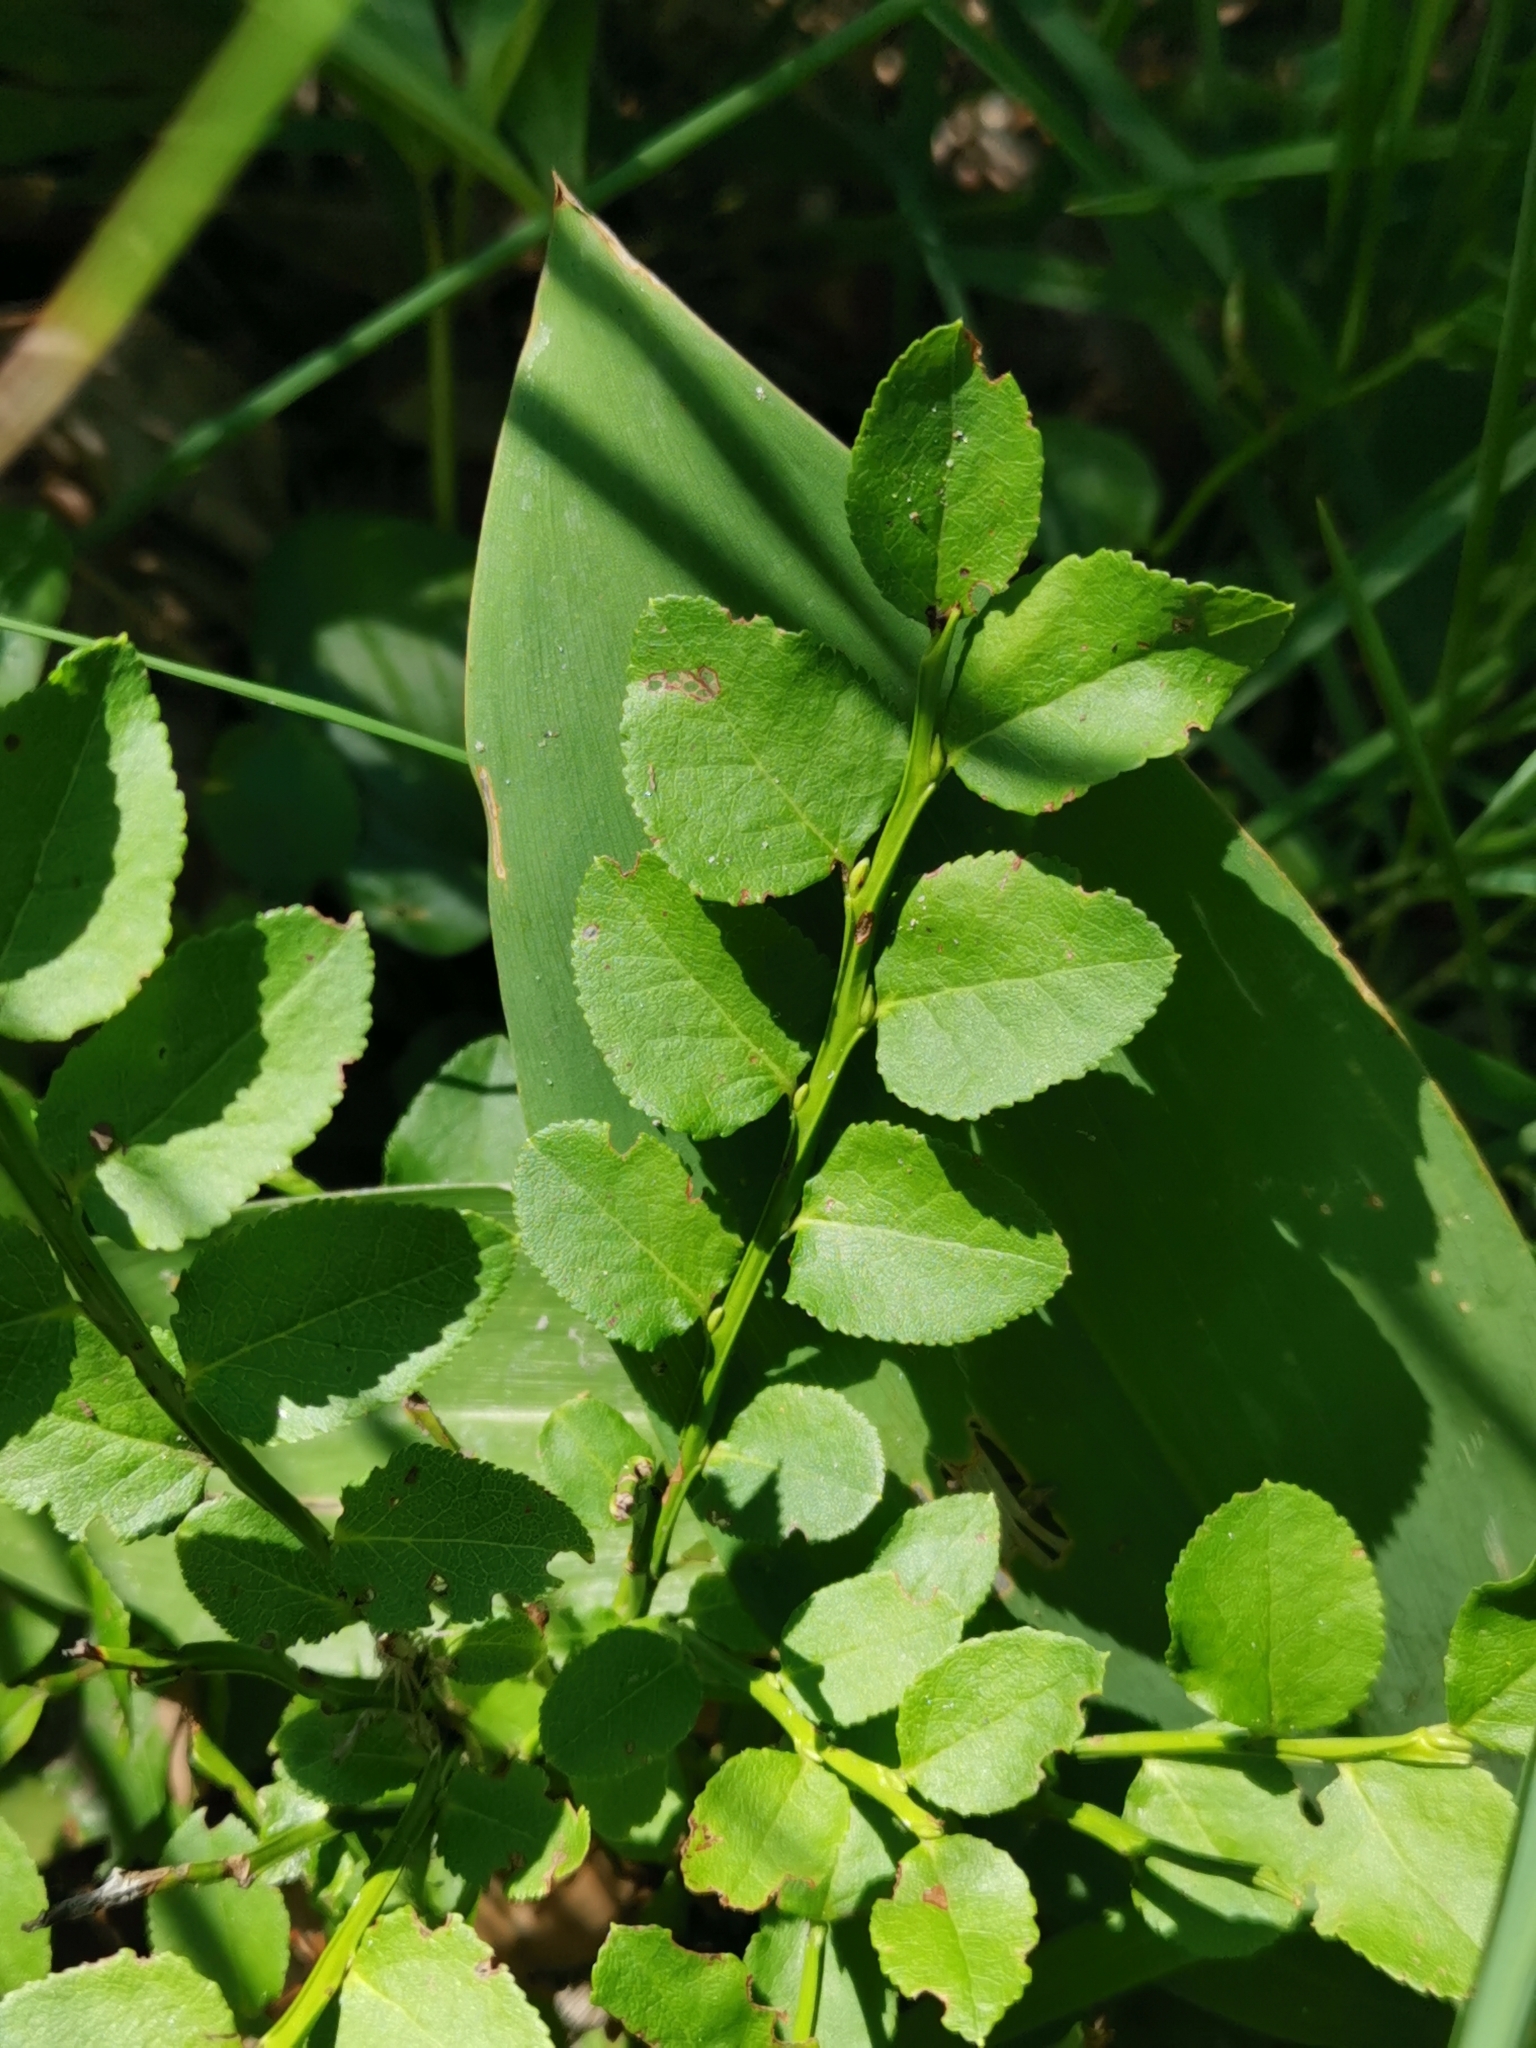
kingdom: Plantae
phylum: Tracheophyta
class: Magnoliopsida
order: Ericales
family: Ericaceae
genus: Vaccinium
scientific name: Vaccinium myrtillus
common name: Bilberry
